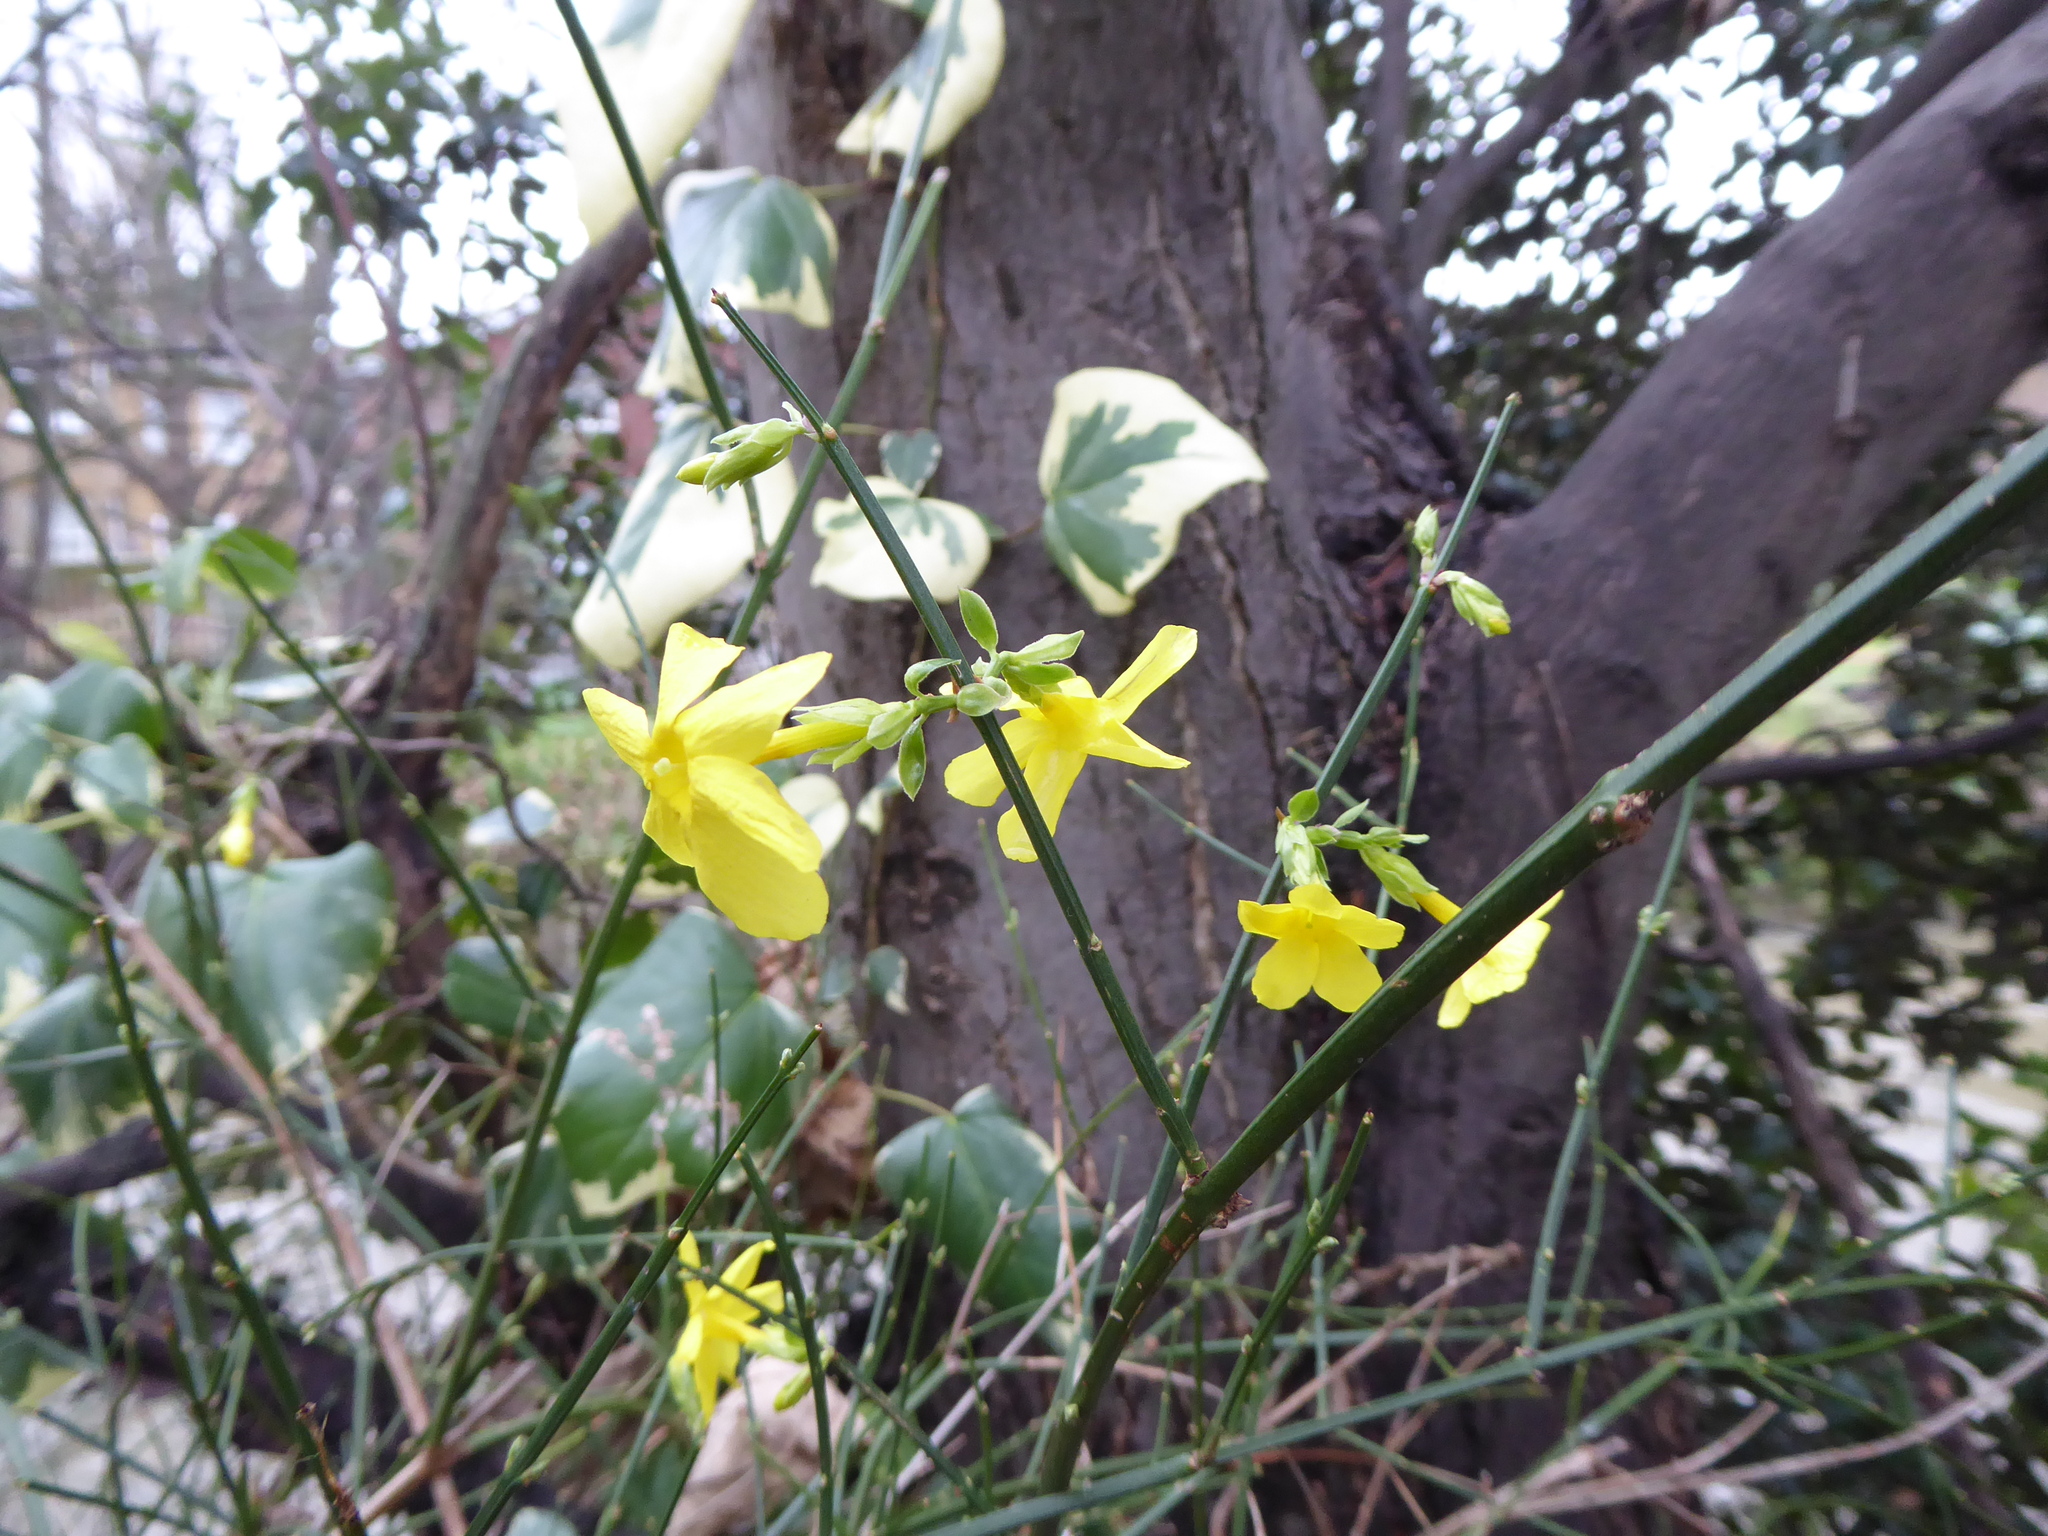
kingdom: Plantae
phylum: Tracheophyta
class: Magnoliopsida
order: Lamiales
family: Oleaceae
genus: Jasminum
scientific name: Jasminum nudiflorum
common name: Winter jasmine
